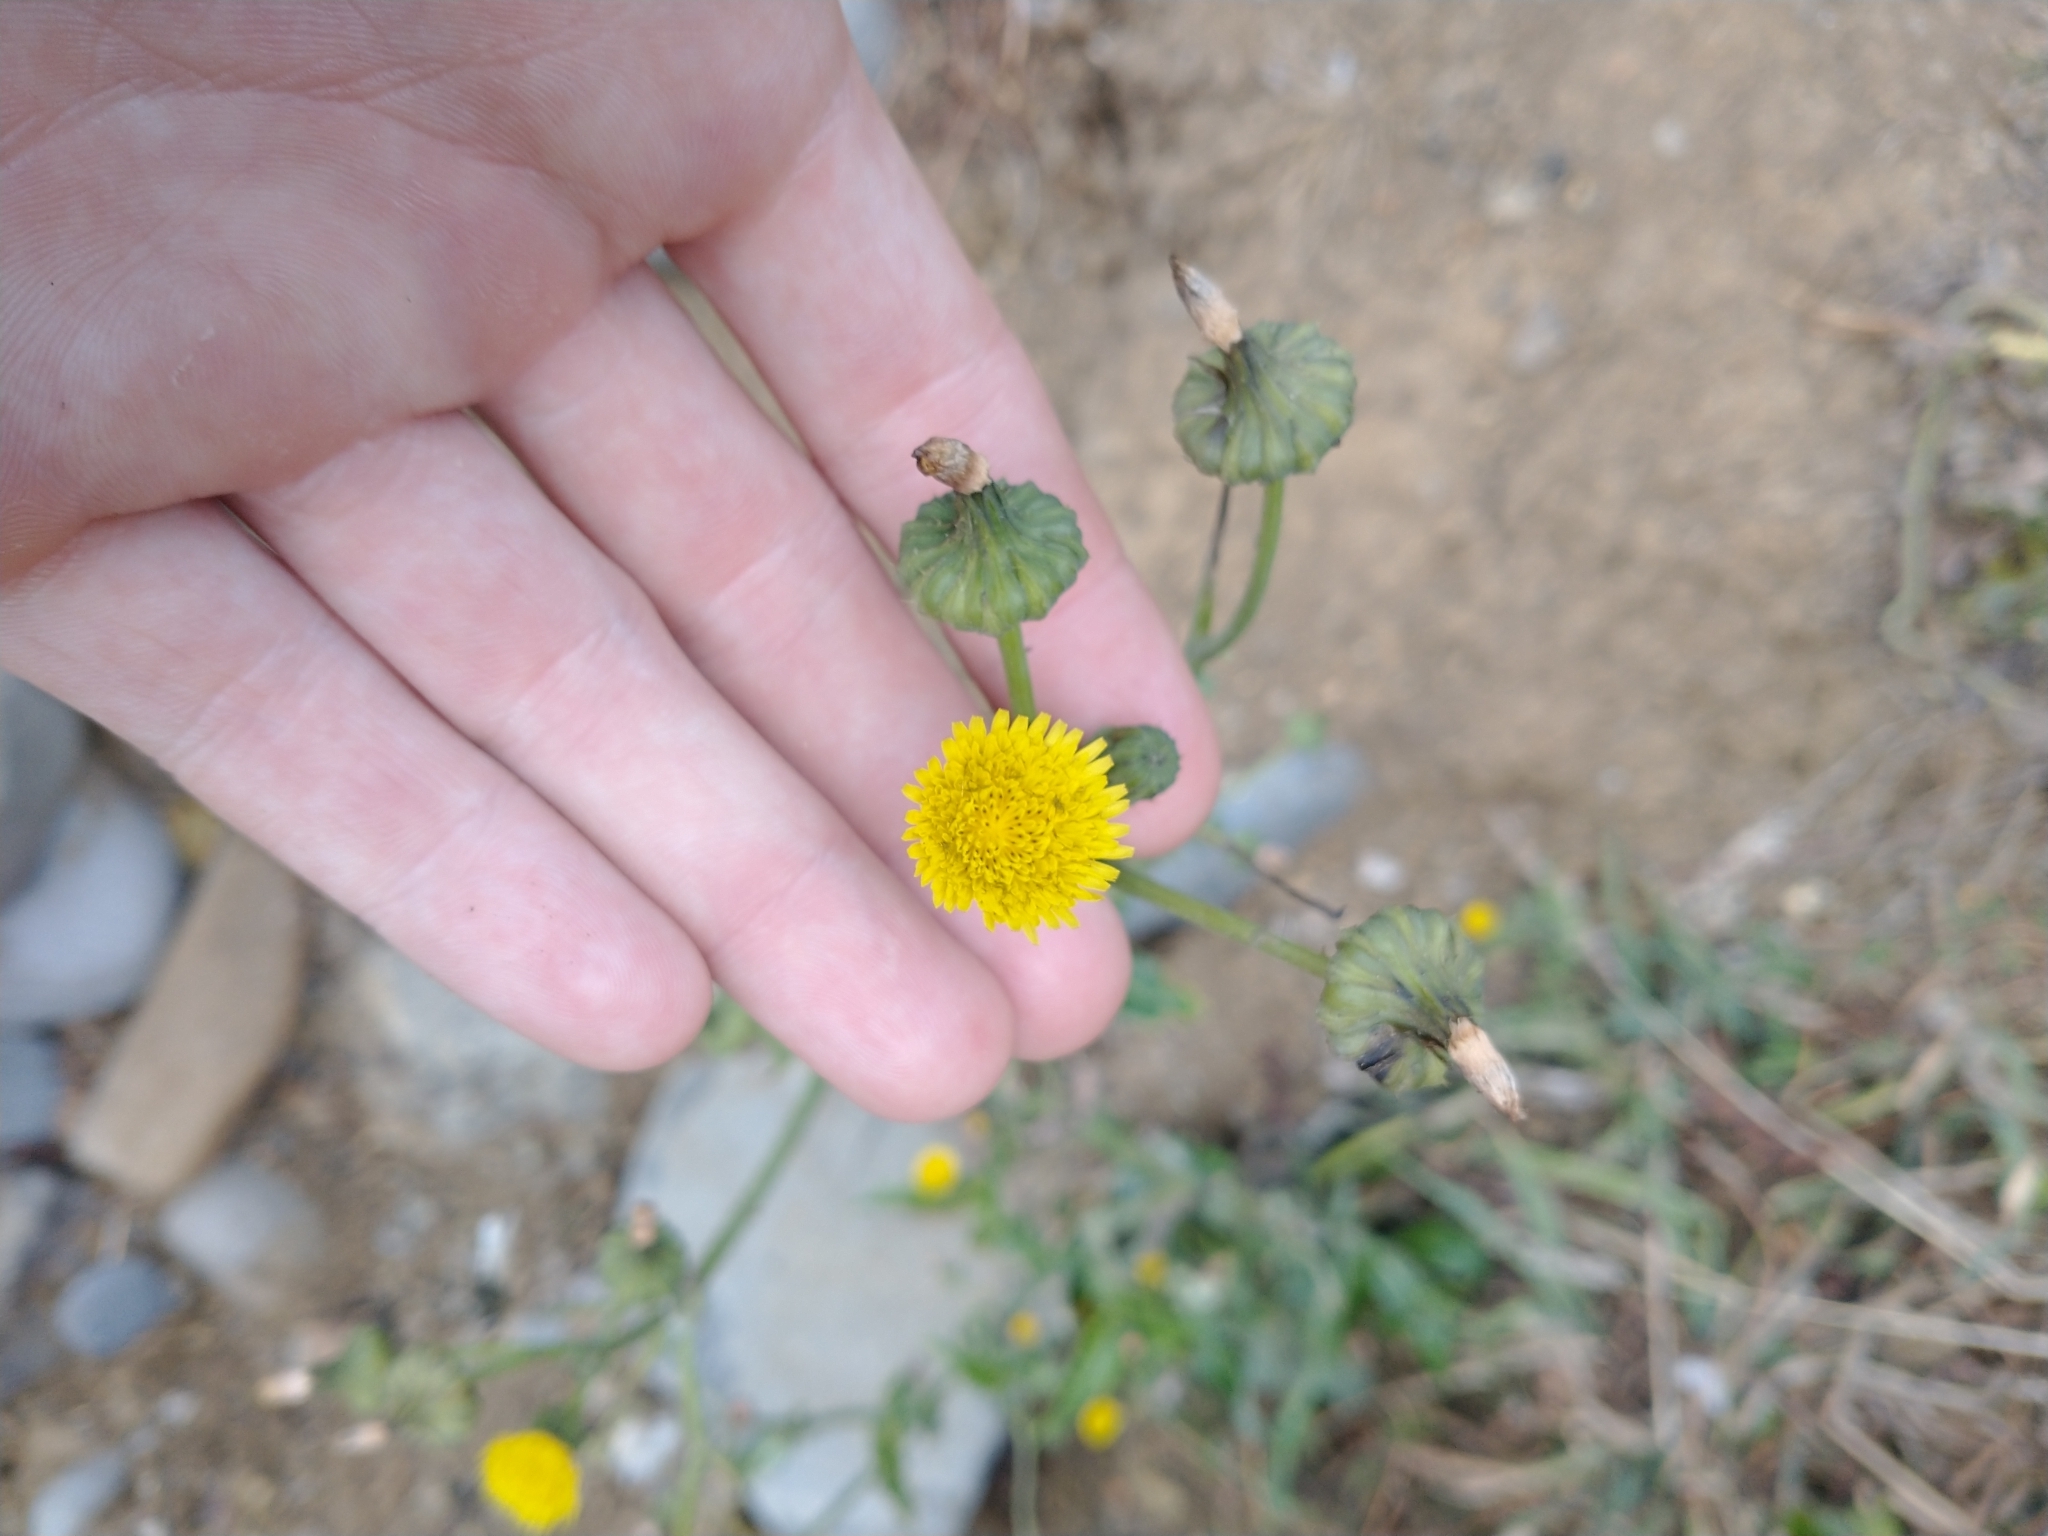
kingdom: Plantae
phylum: Tracheophyta
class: Magnoliopsida
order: Asterales
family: Asteraceae
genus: Sonchus
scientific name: Sonchus asper
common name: Prickly sow-thistle
